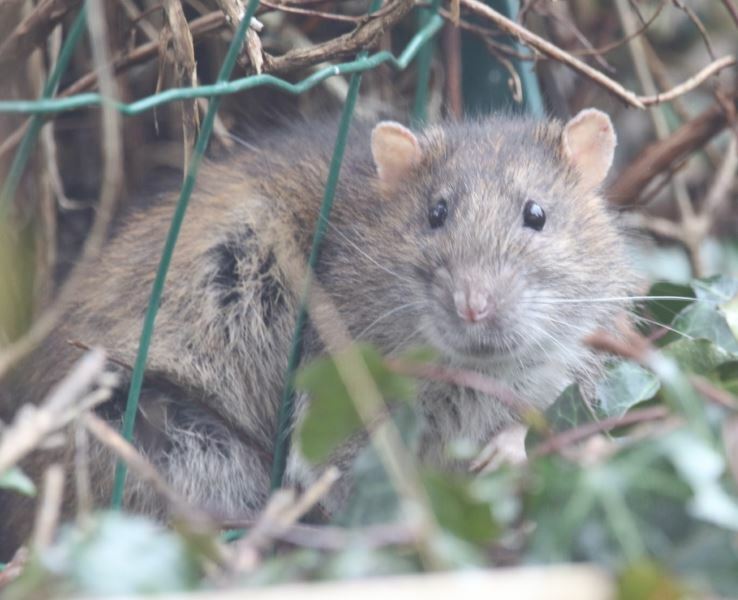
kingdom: Animalia
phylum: Chordata
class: Mammalia
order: Rodentia
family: Muridae
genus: Rattus
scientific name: Rattus norvegicus
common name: Brown rat
